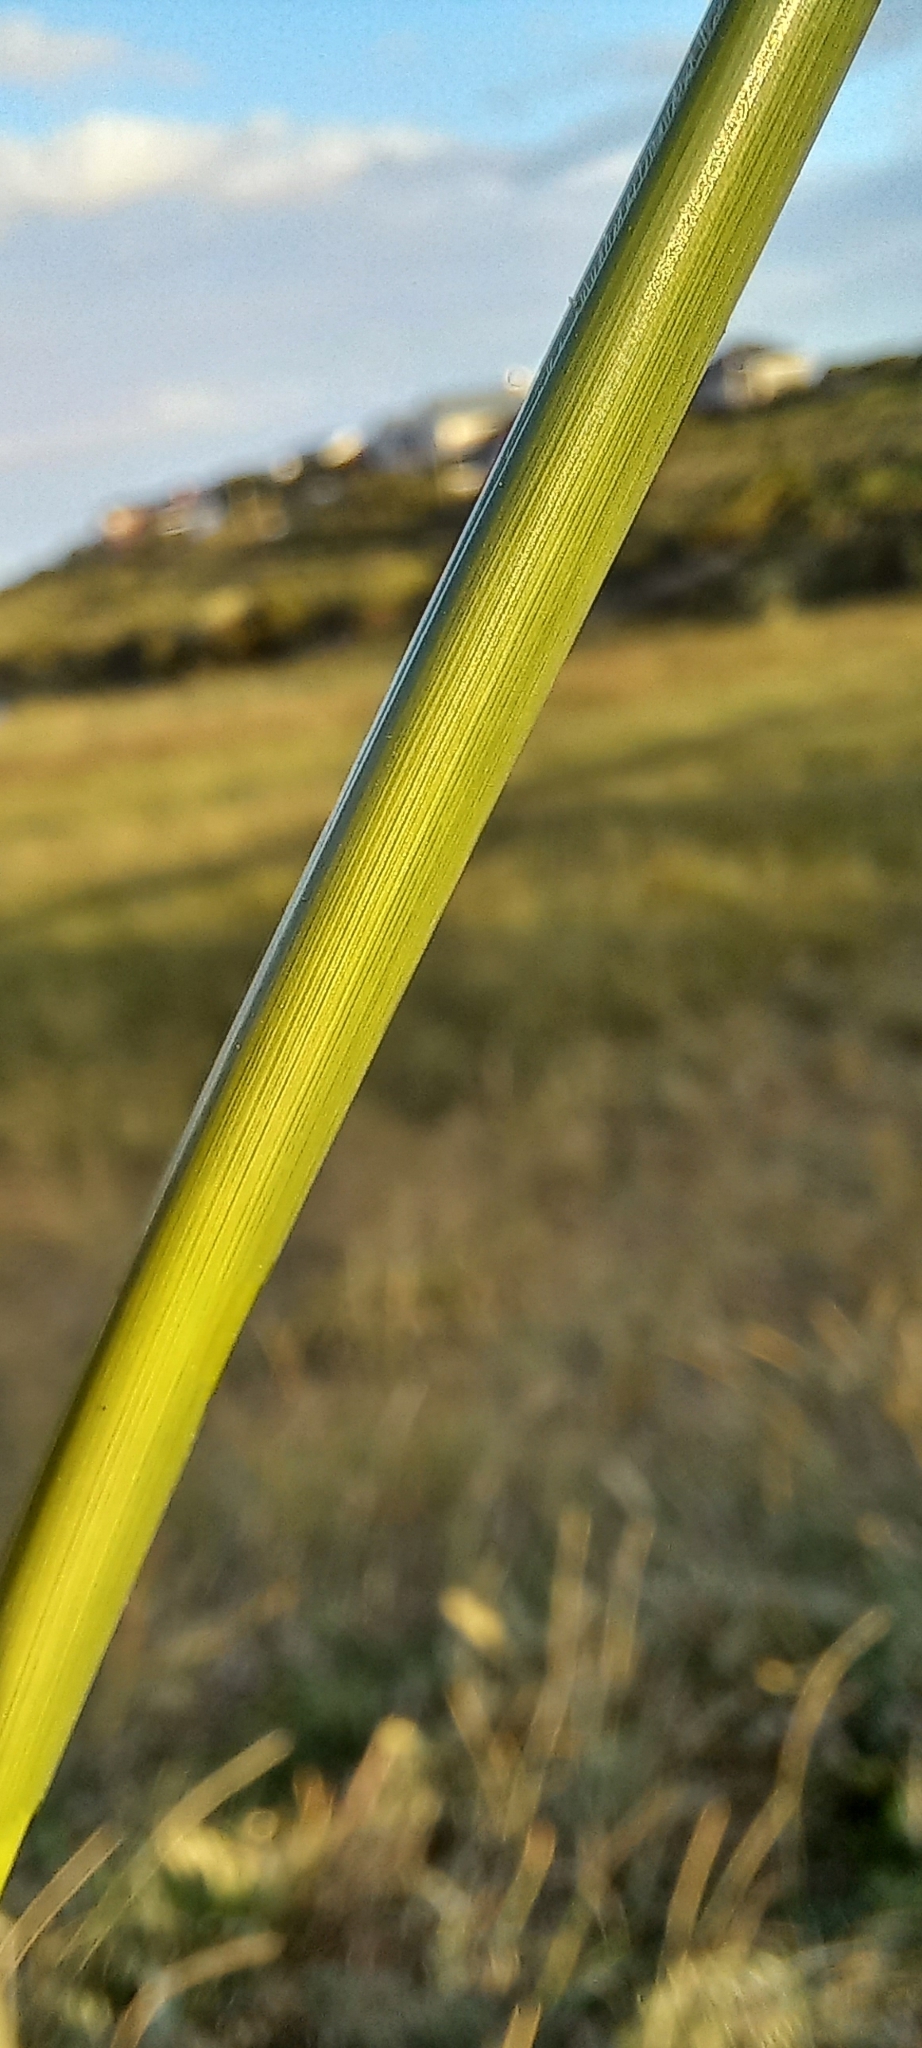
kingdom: Plantae
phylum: Tracheophyta
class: Liliopsida
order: Poales
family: Poaceae
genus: Sporobolus
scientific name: Sporobolus africanus
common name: African dropseed
